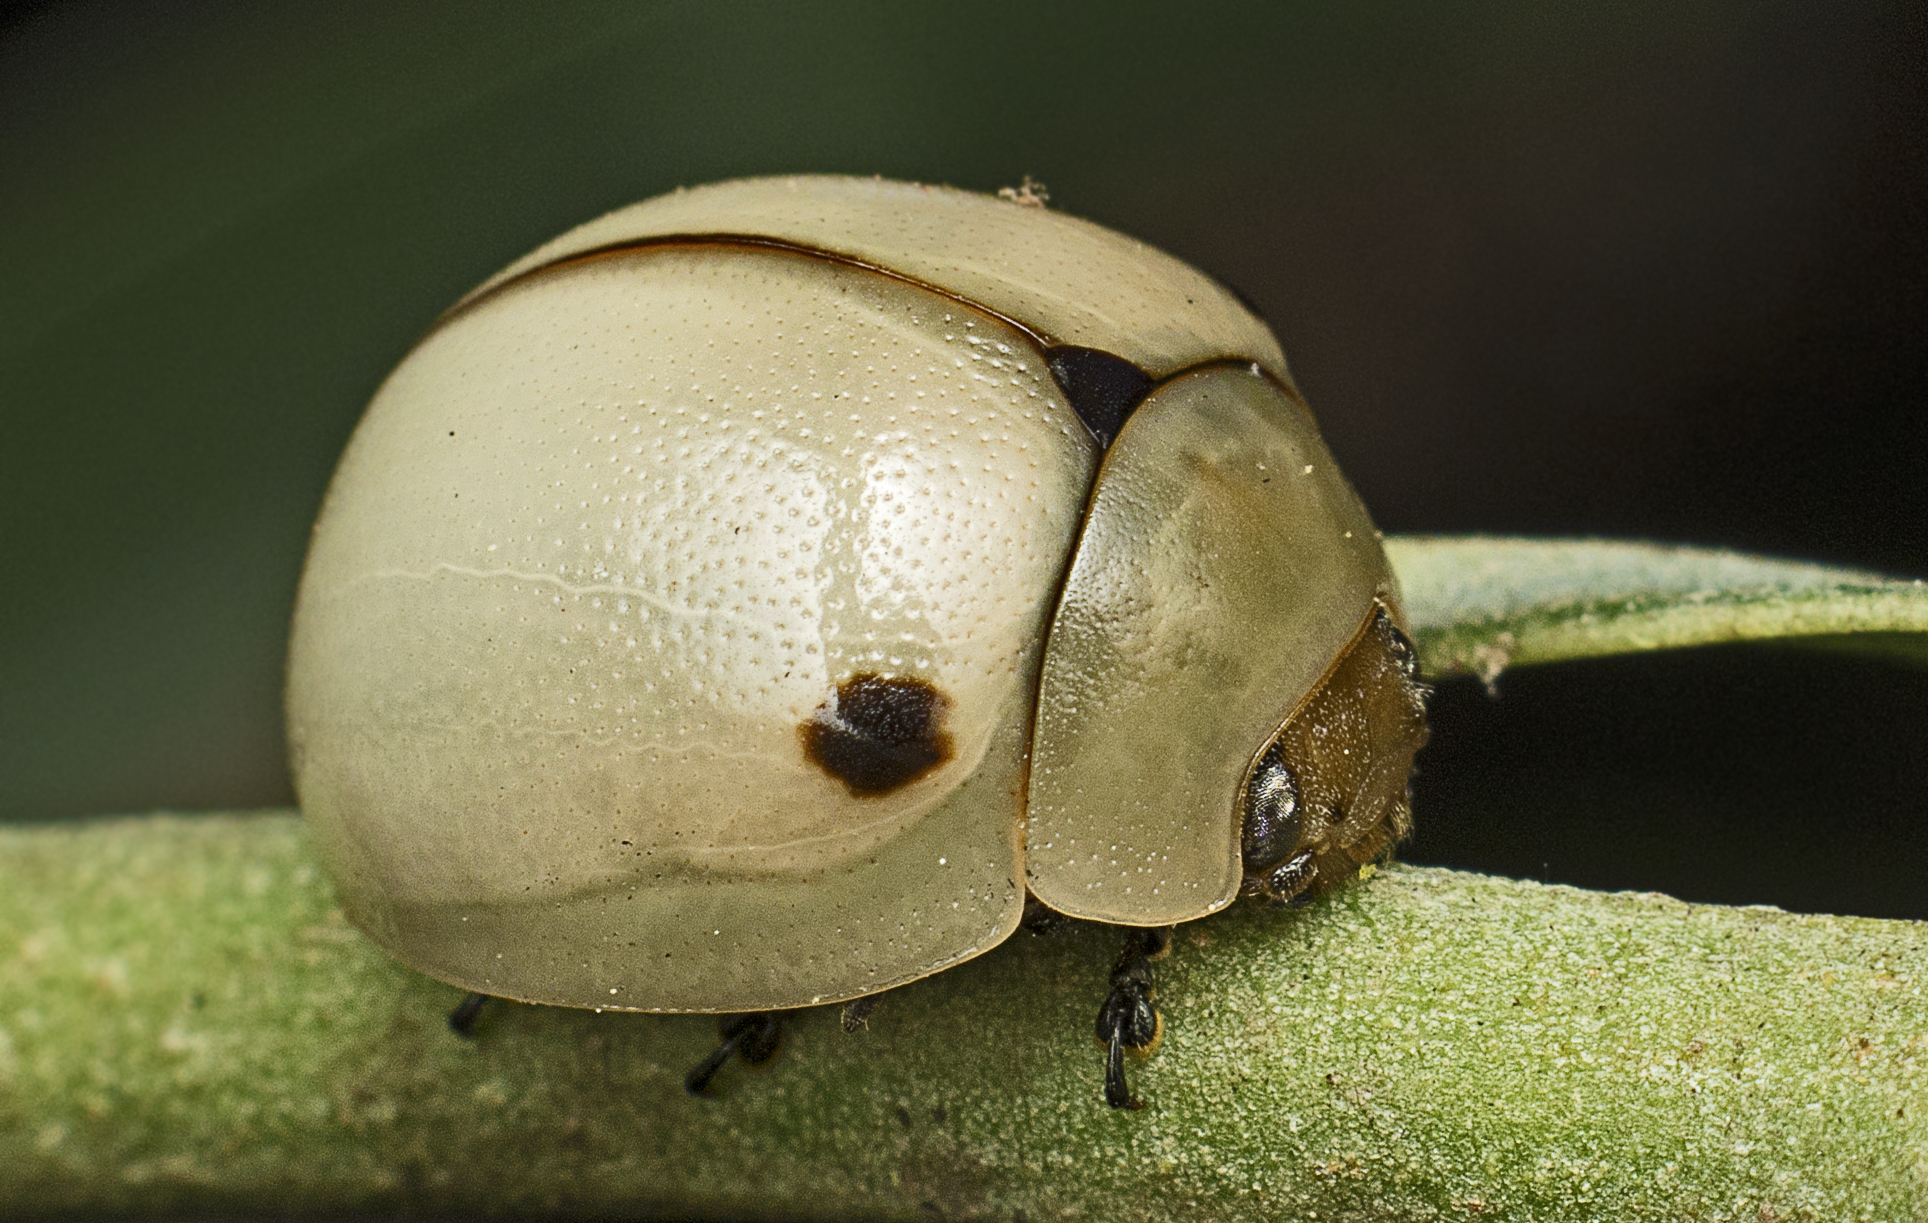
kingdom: Animalia
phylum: Arthropoda
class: Insecta
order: Coleoptera
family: Chrysomelidae
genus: Dicranosterna
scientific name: Dicranosterna
